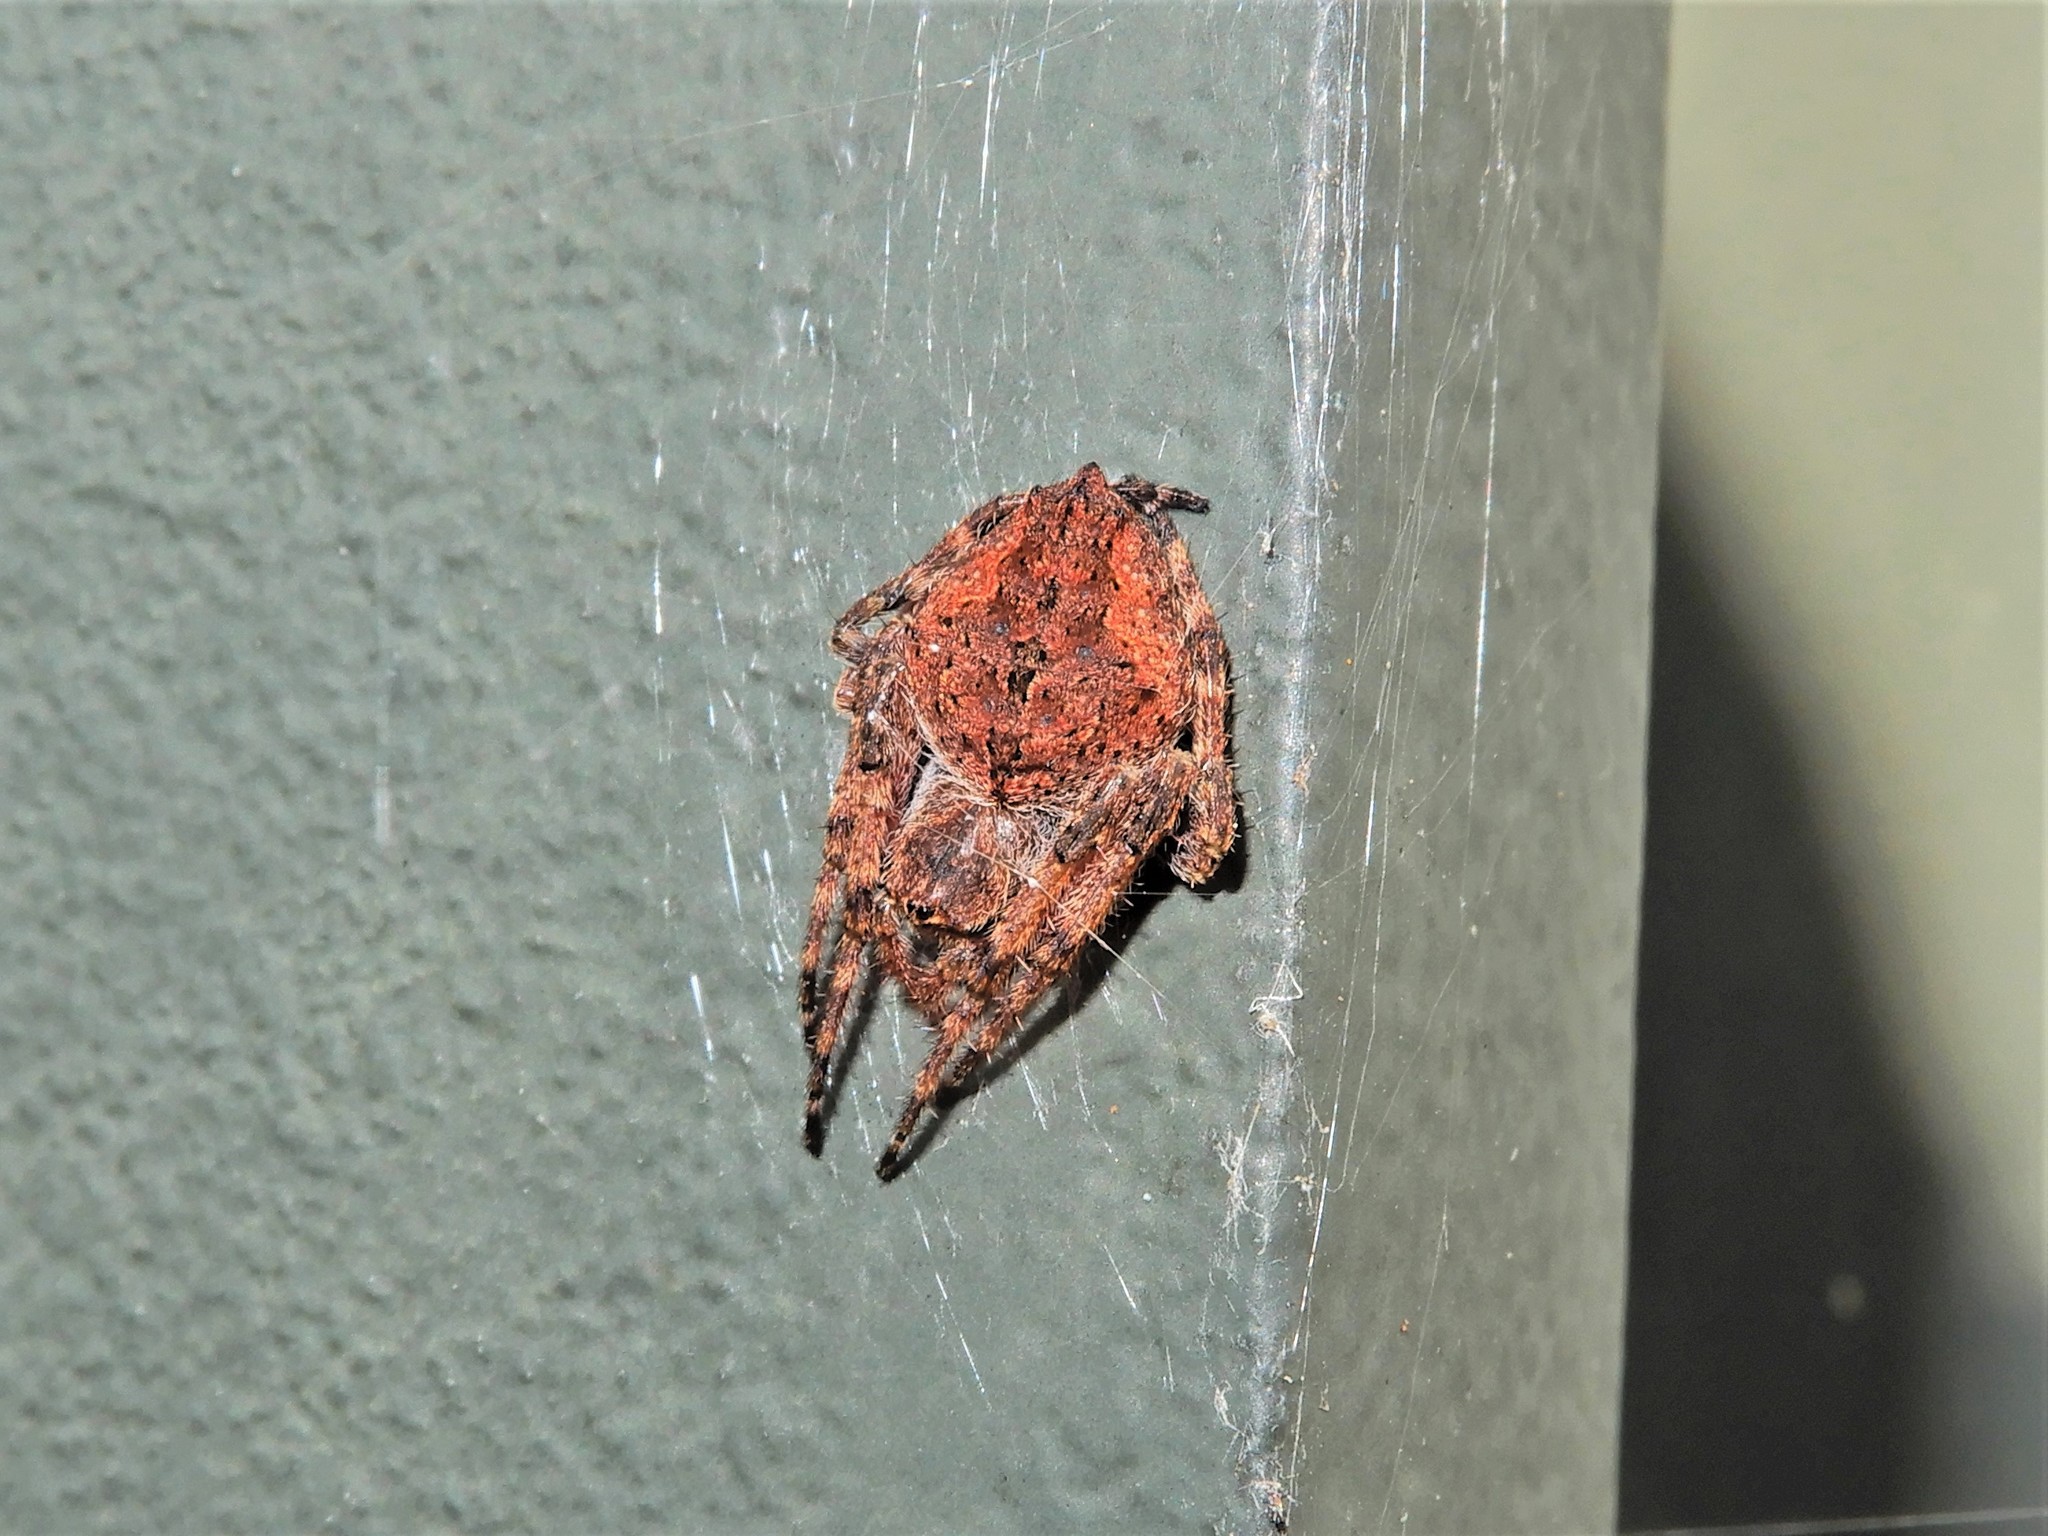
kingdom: Animalia
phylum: Arthropoda
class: Arachnida
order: Araneae
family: Araneidae
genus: Eriophora
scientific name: Eriophora pustulosa
